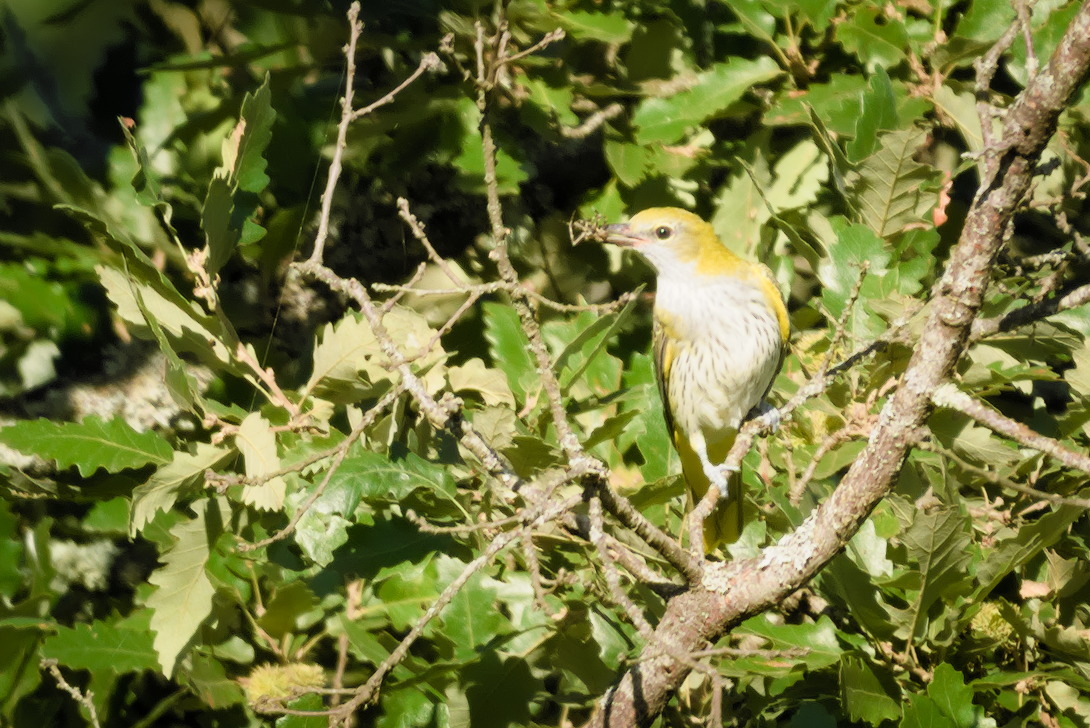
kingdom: Animalia
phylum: Chordata
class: Aves
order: Passeriformes
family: Oriolidae
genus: Oriolus
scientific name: Oriolus oriolus
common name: Eurasian golden oriole
